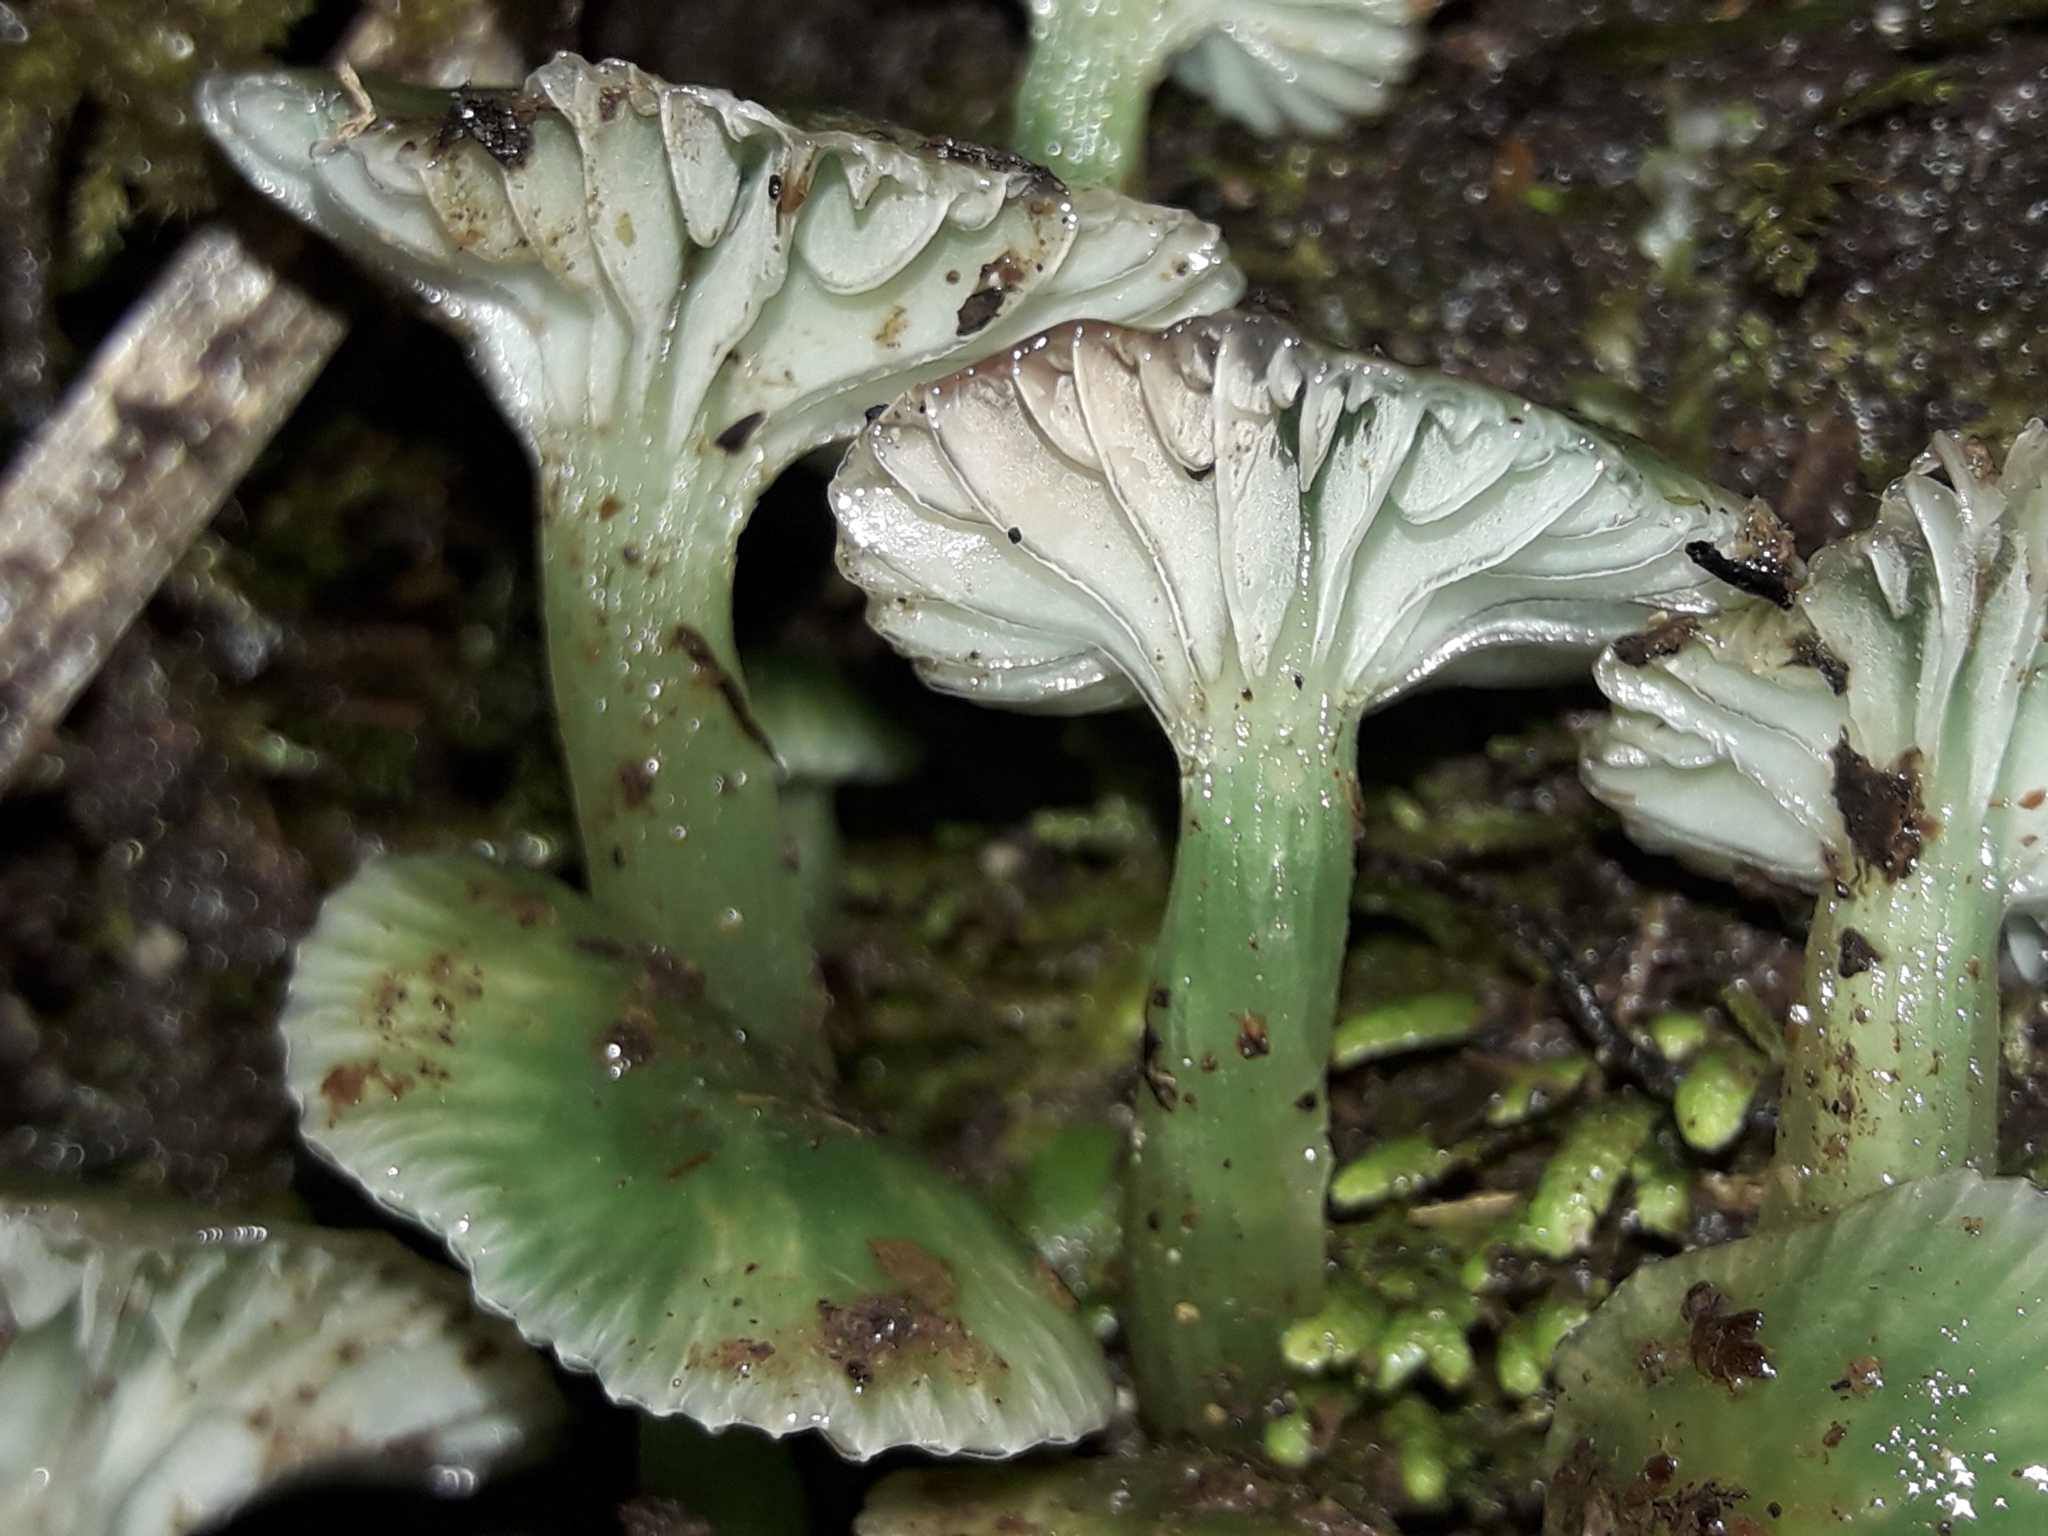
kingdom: Fungi
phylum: Basidiomycota
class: Agaricomycetes
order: Agaricales
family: Hygrophoraceae
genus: Gliophorus
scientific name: Gliophorus viridis
